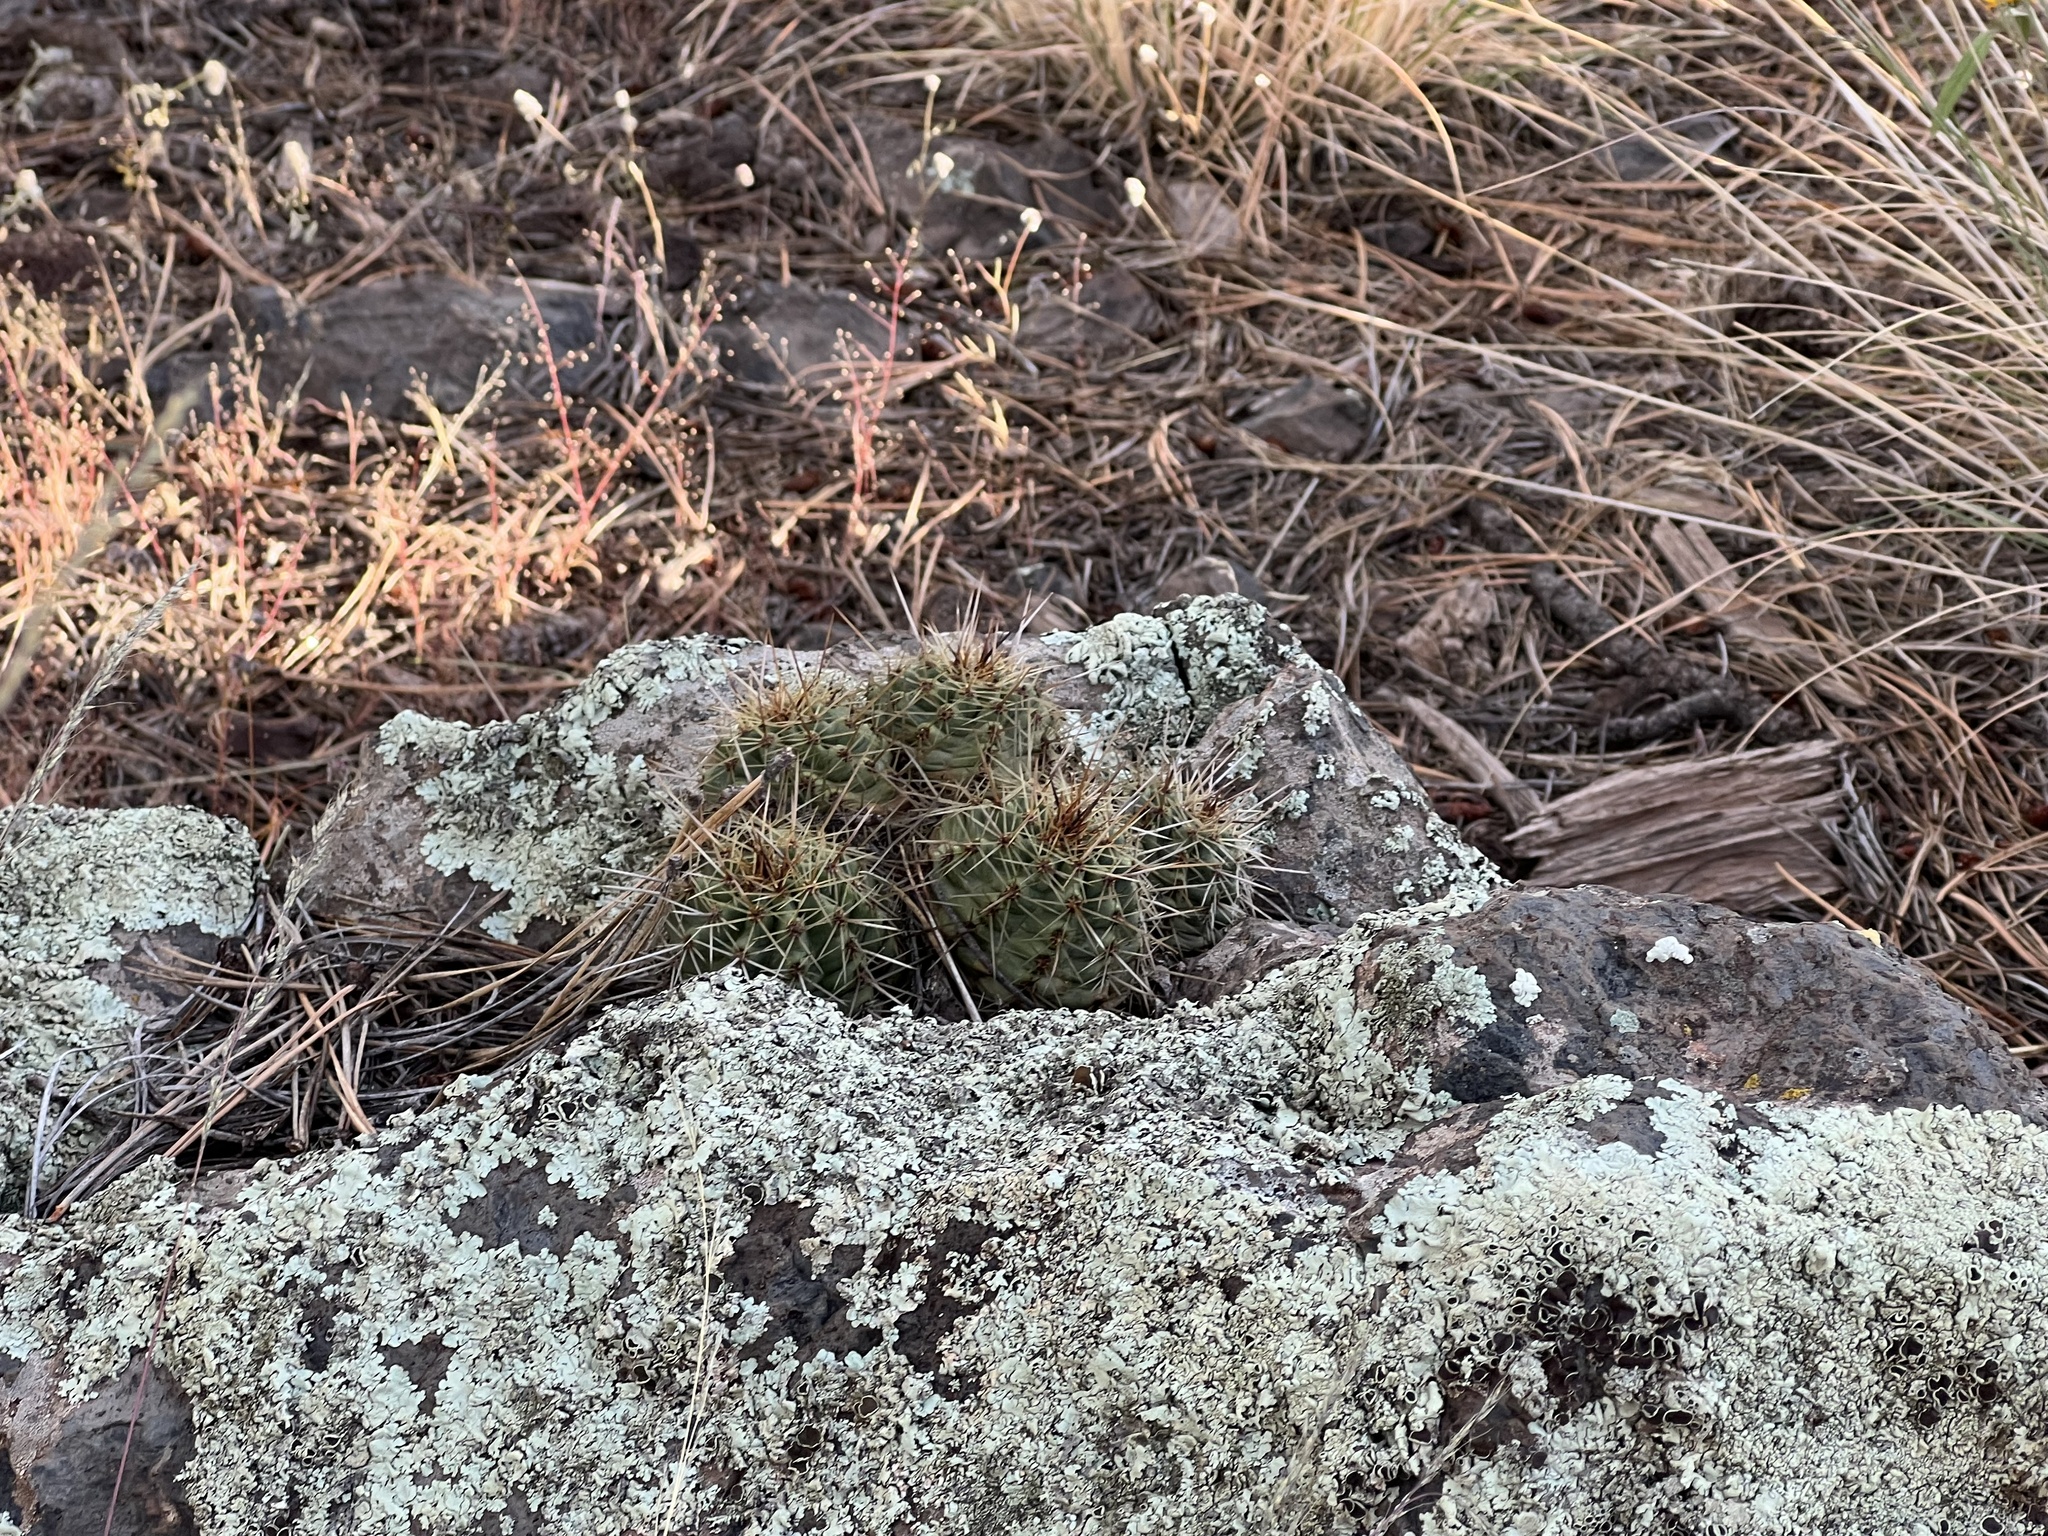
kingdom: Plantae
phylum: Tracheophyta
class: Magnoliopsida
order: Caryophyllales
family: Cactaceae
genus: Echinocereus
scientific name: Echinocereus bakeri
